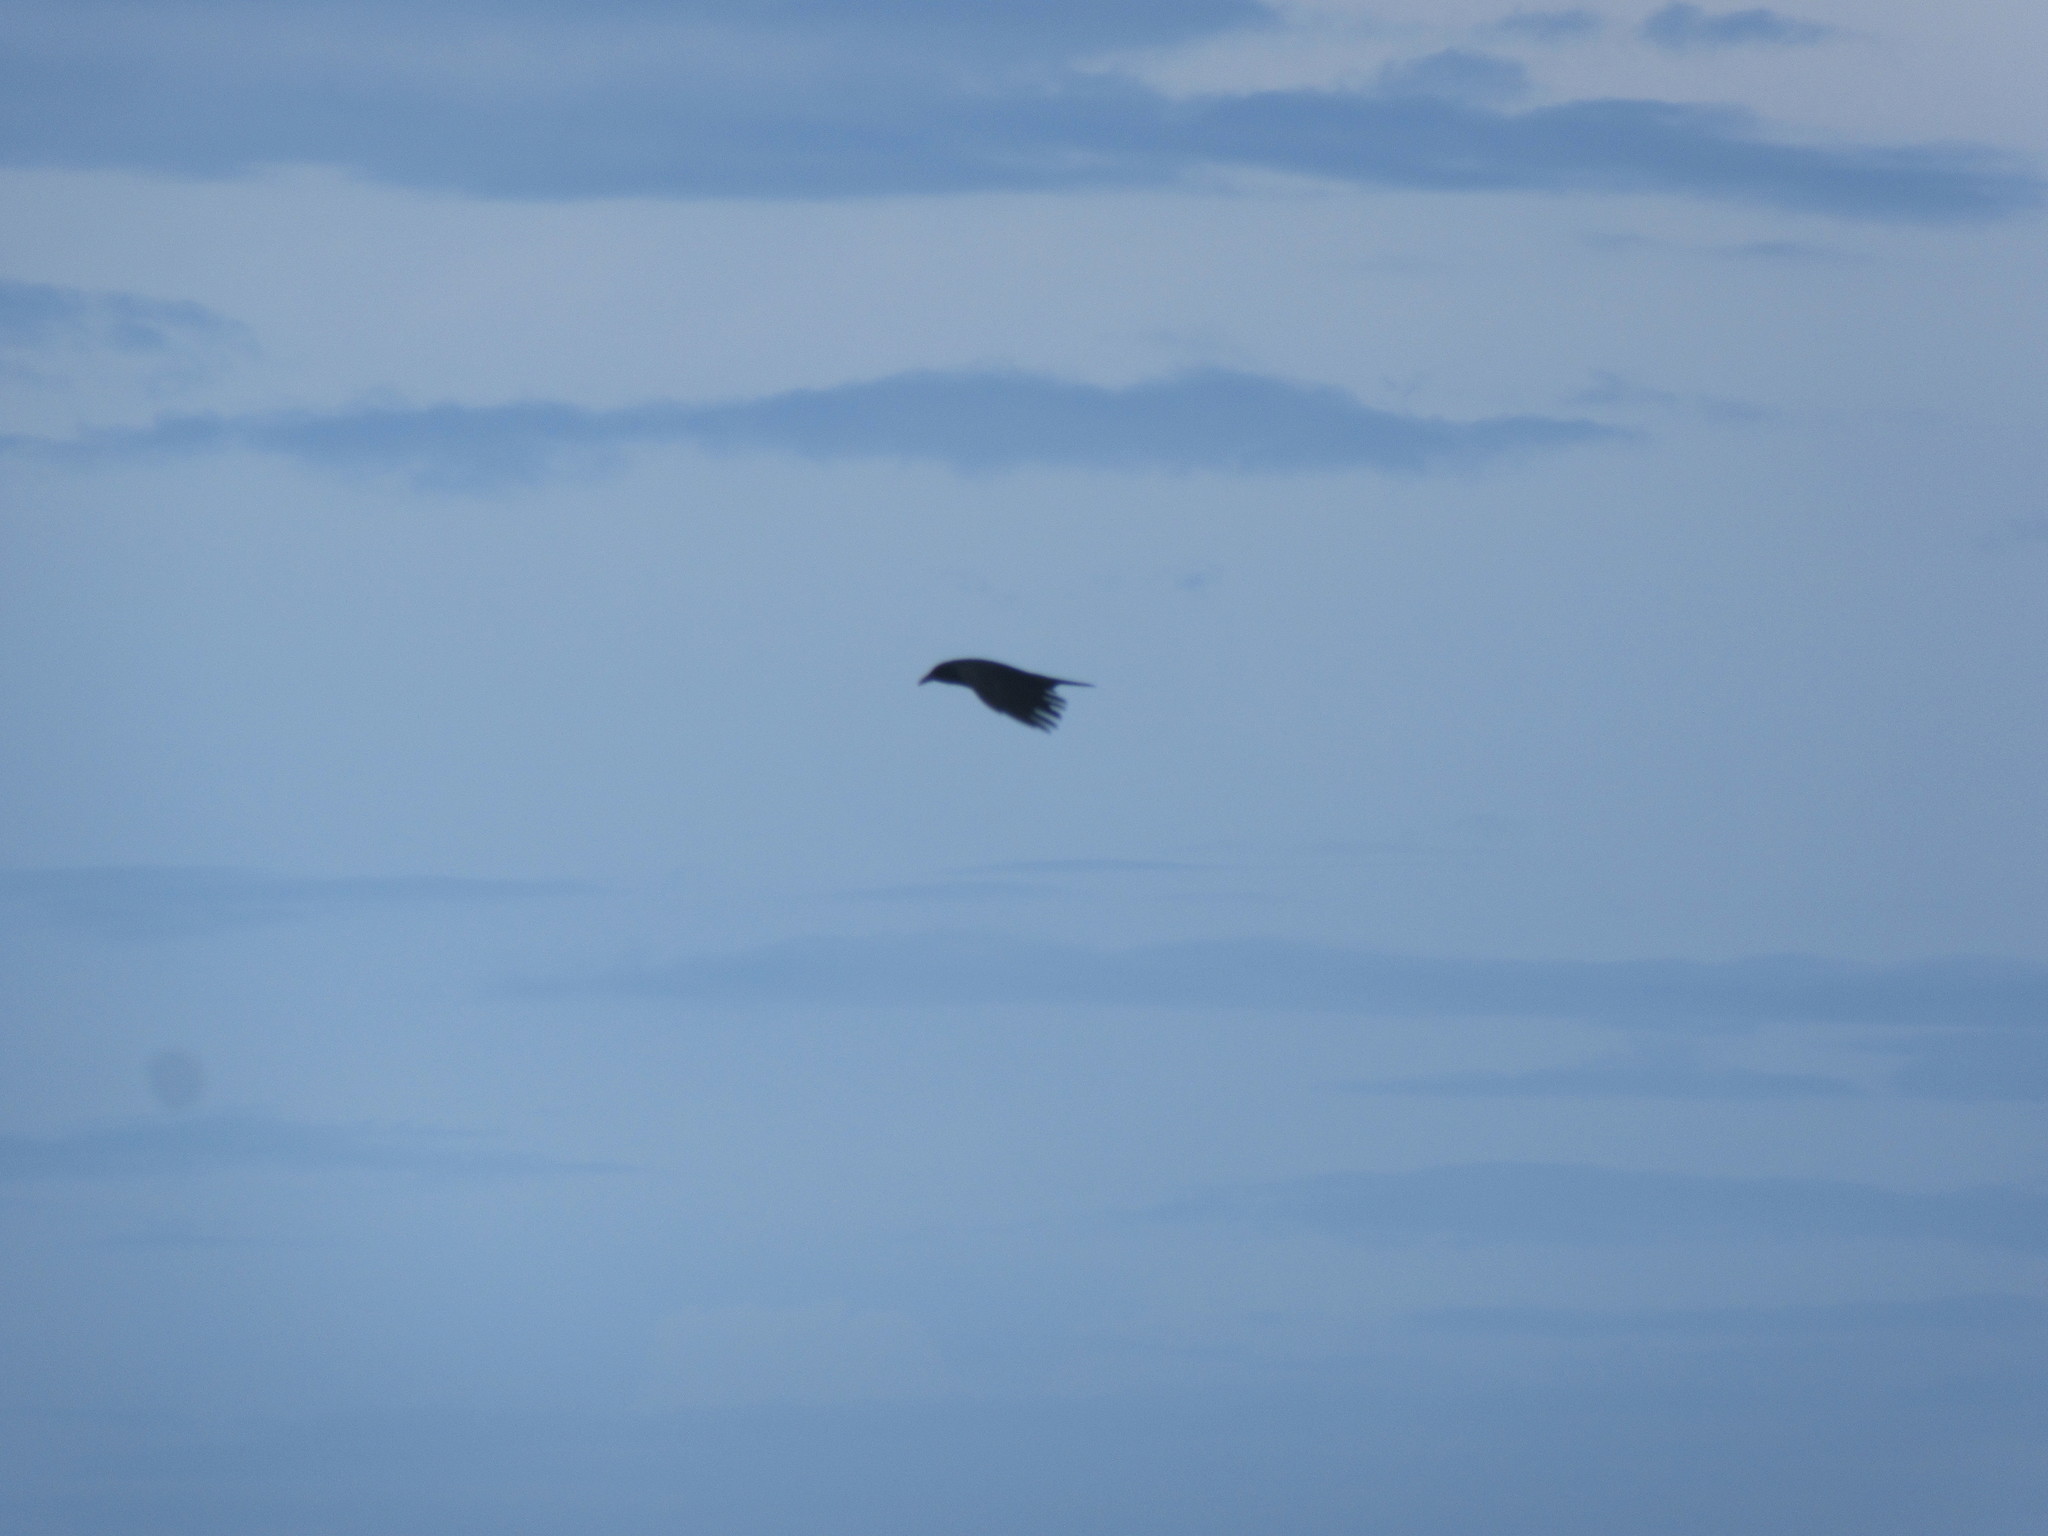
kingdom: Animalia
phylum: Chordata
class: Aves
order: Passeriformes
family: Corvidae
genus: Corvus
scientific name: Corvus ossifragus
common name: Fish crow
